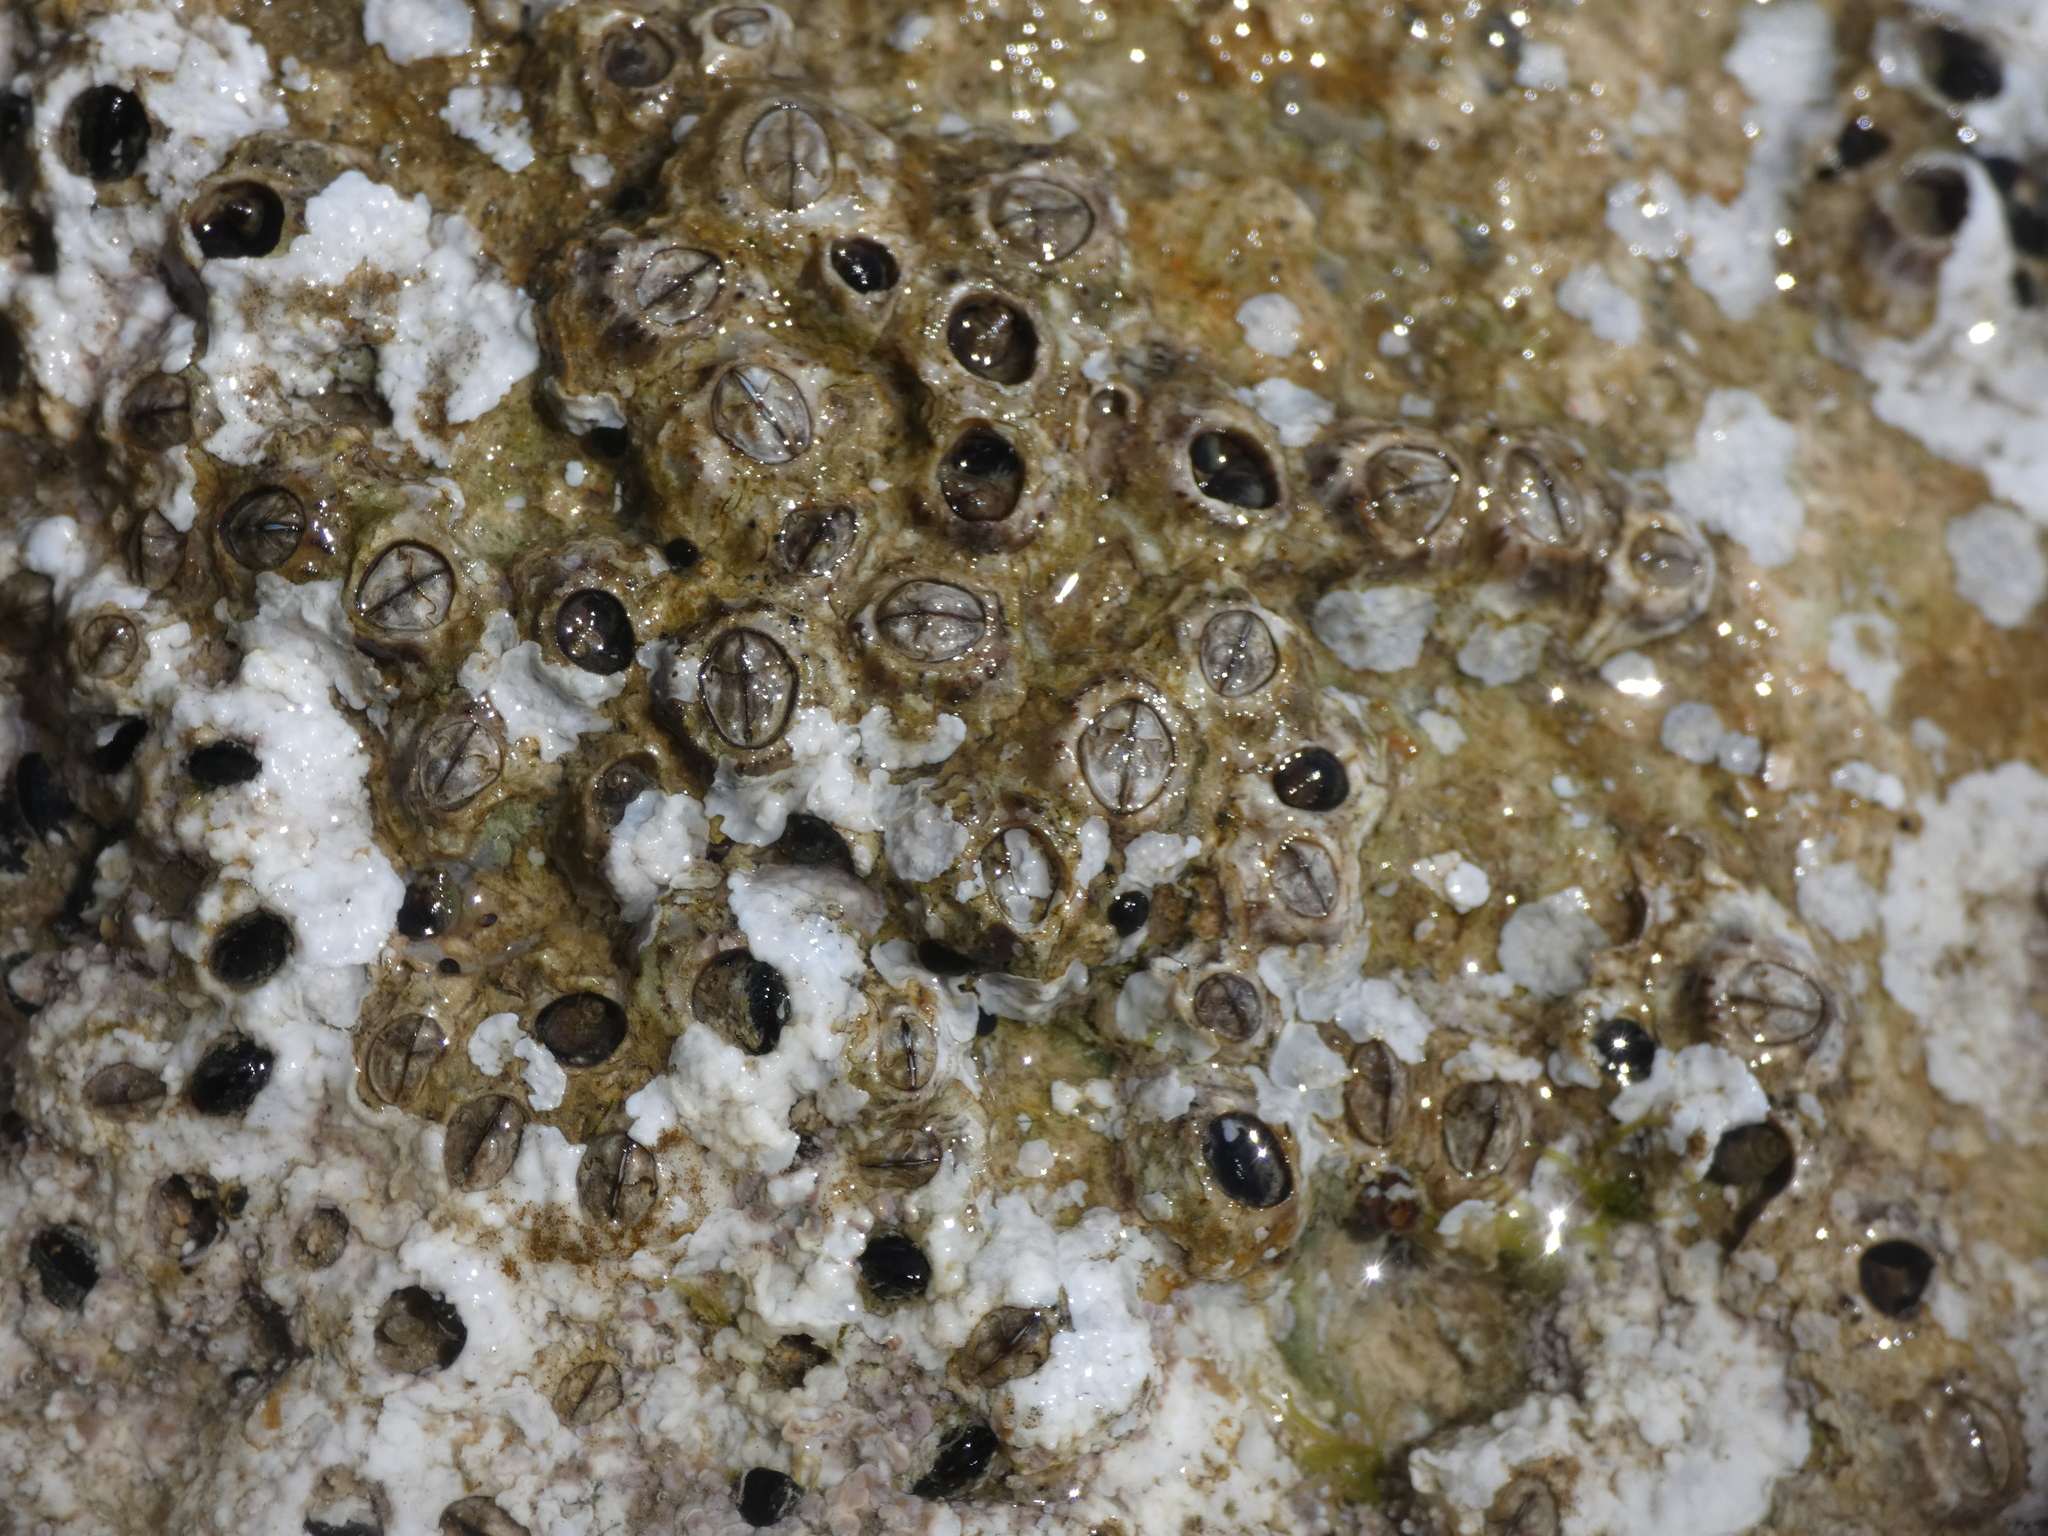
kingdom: Animalia
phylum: Arthropoda
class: Maxillopoda
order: Sessilia
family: Chthamalidae
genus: Chthamalus
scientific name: Chthamalus stellatus
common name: Poli's stellate barnacle
